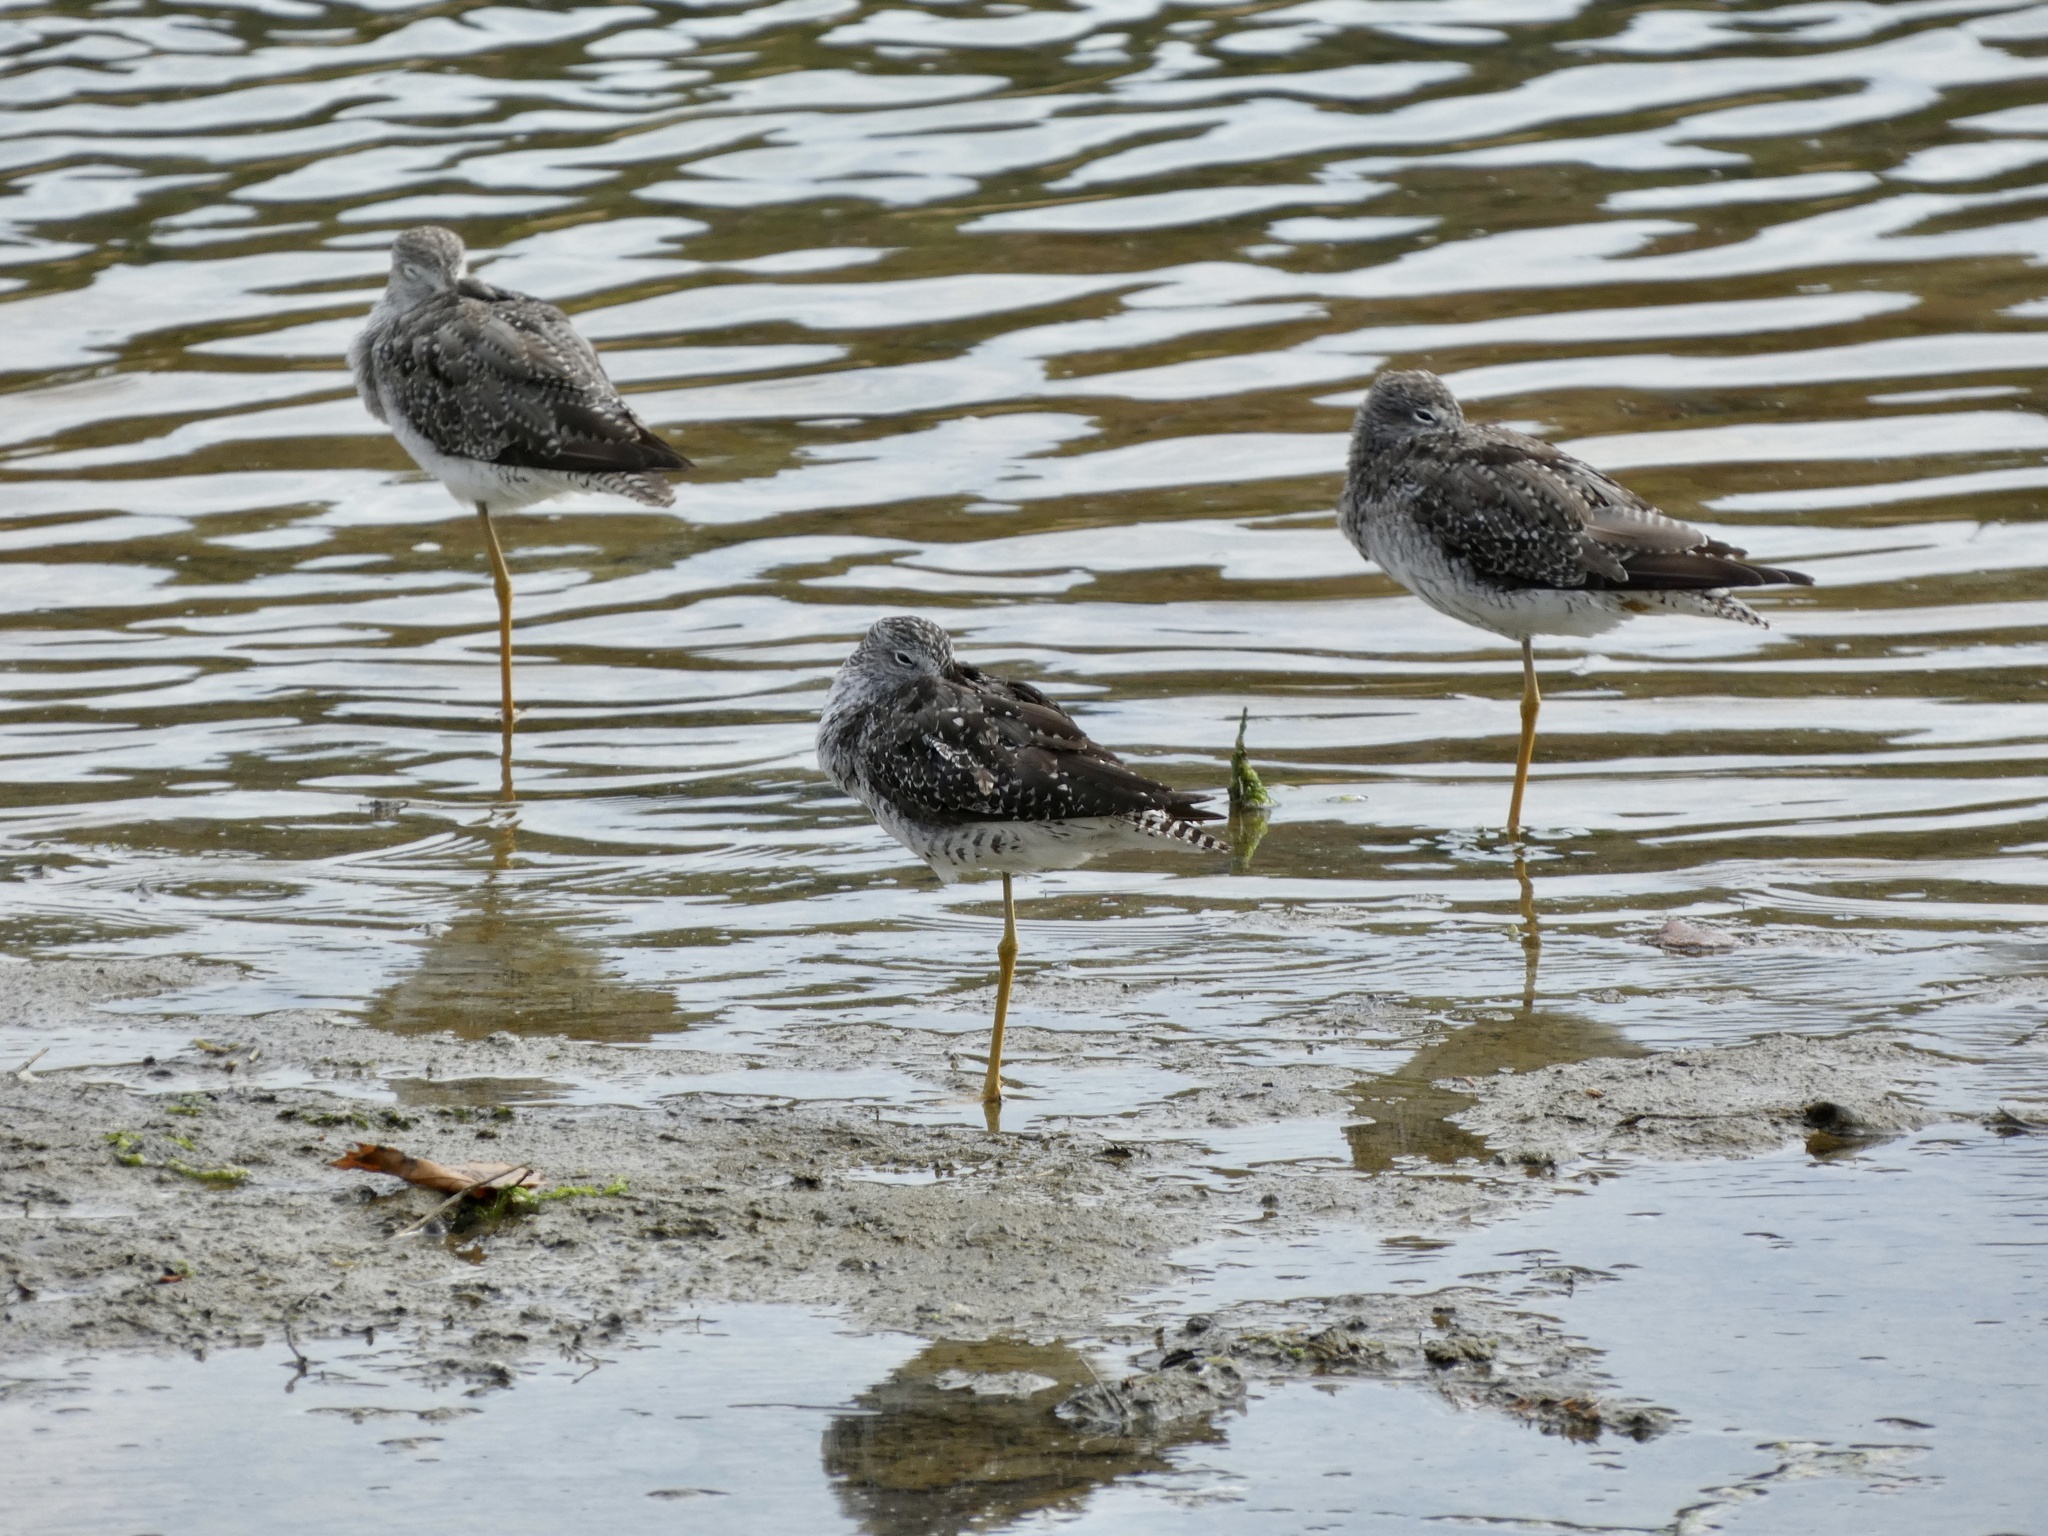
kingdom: Animalia
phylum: Chordata
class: Aves
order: Charadriiformes
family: Scolopacidae
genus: Tringa
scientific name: Tringa melanoleuca
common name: Greater yellowlegs
